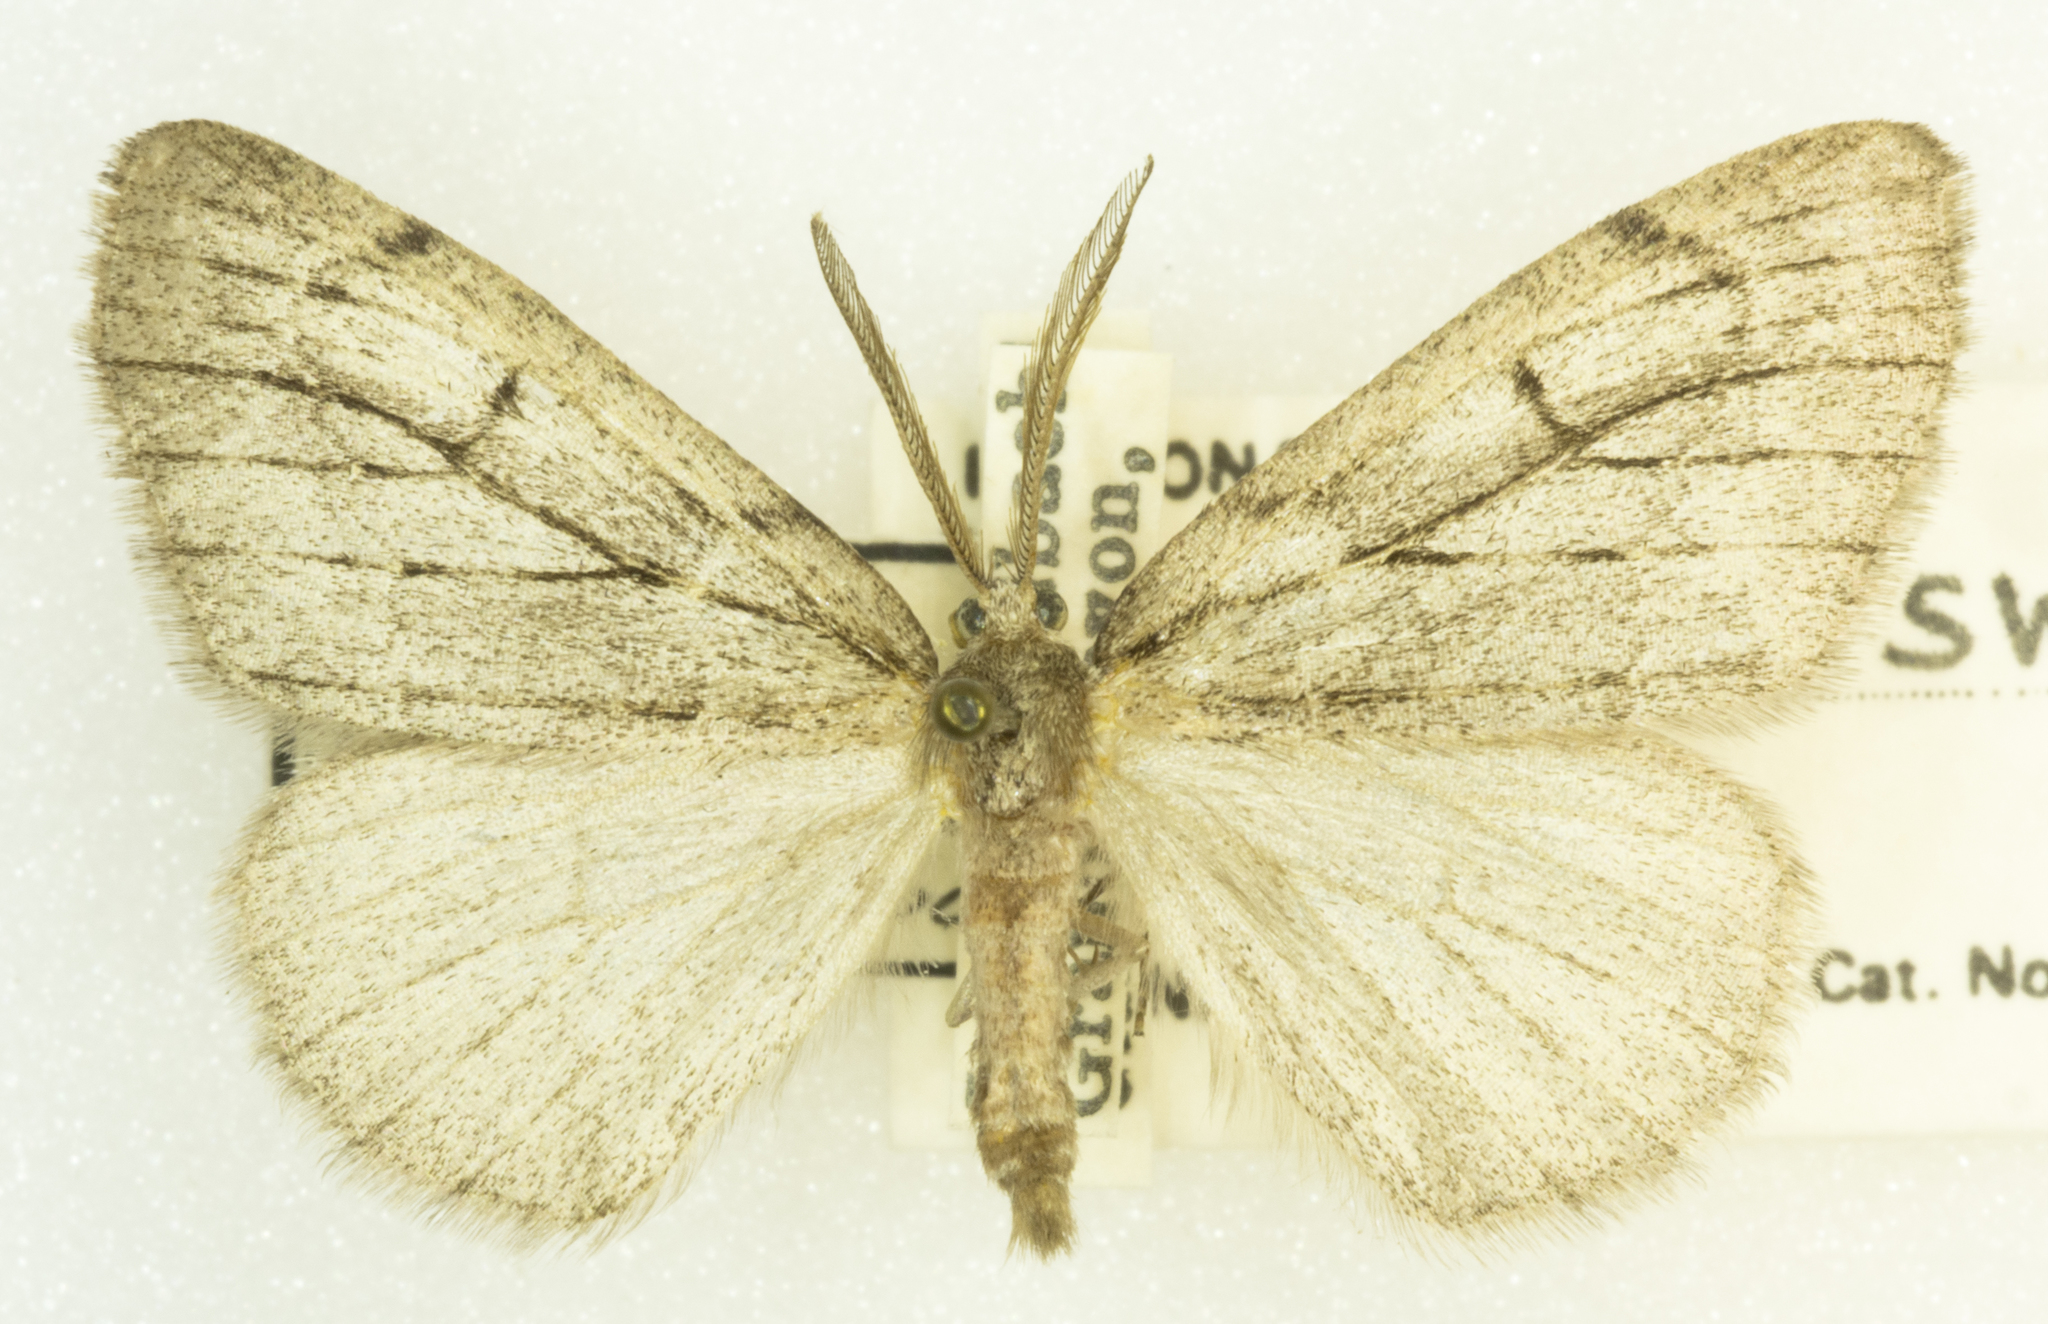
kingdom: Animalia
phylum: Arthropoda
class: Insecta
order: Lepidoptera
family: Geometridae
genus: Nepytia
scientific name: Nepytia swetti
